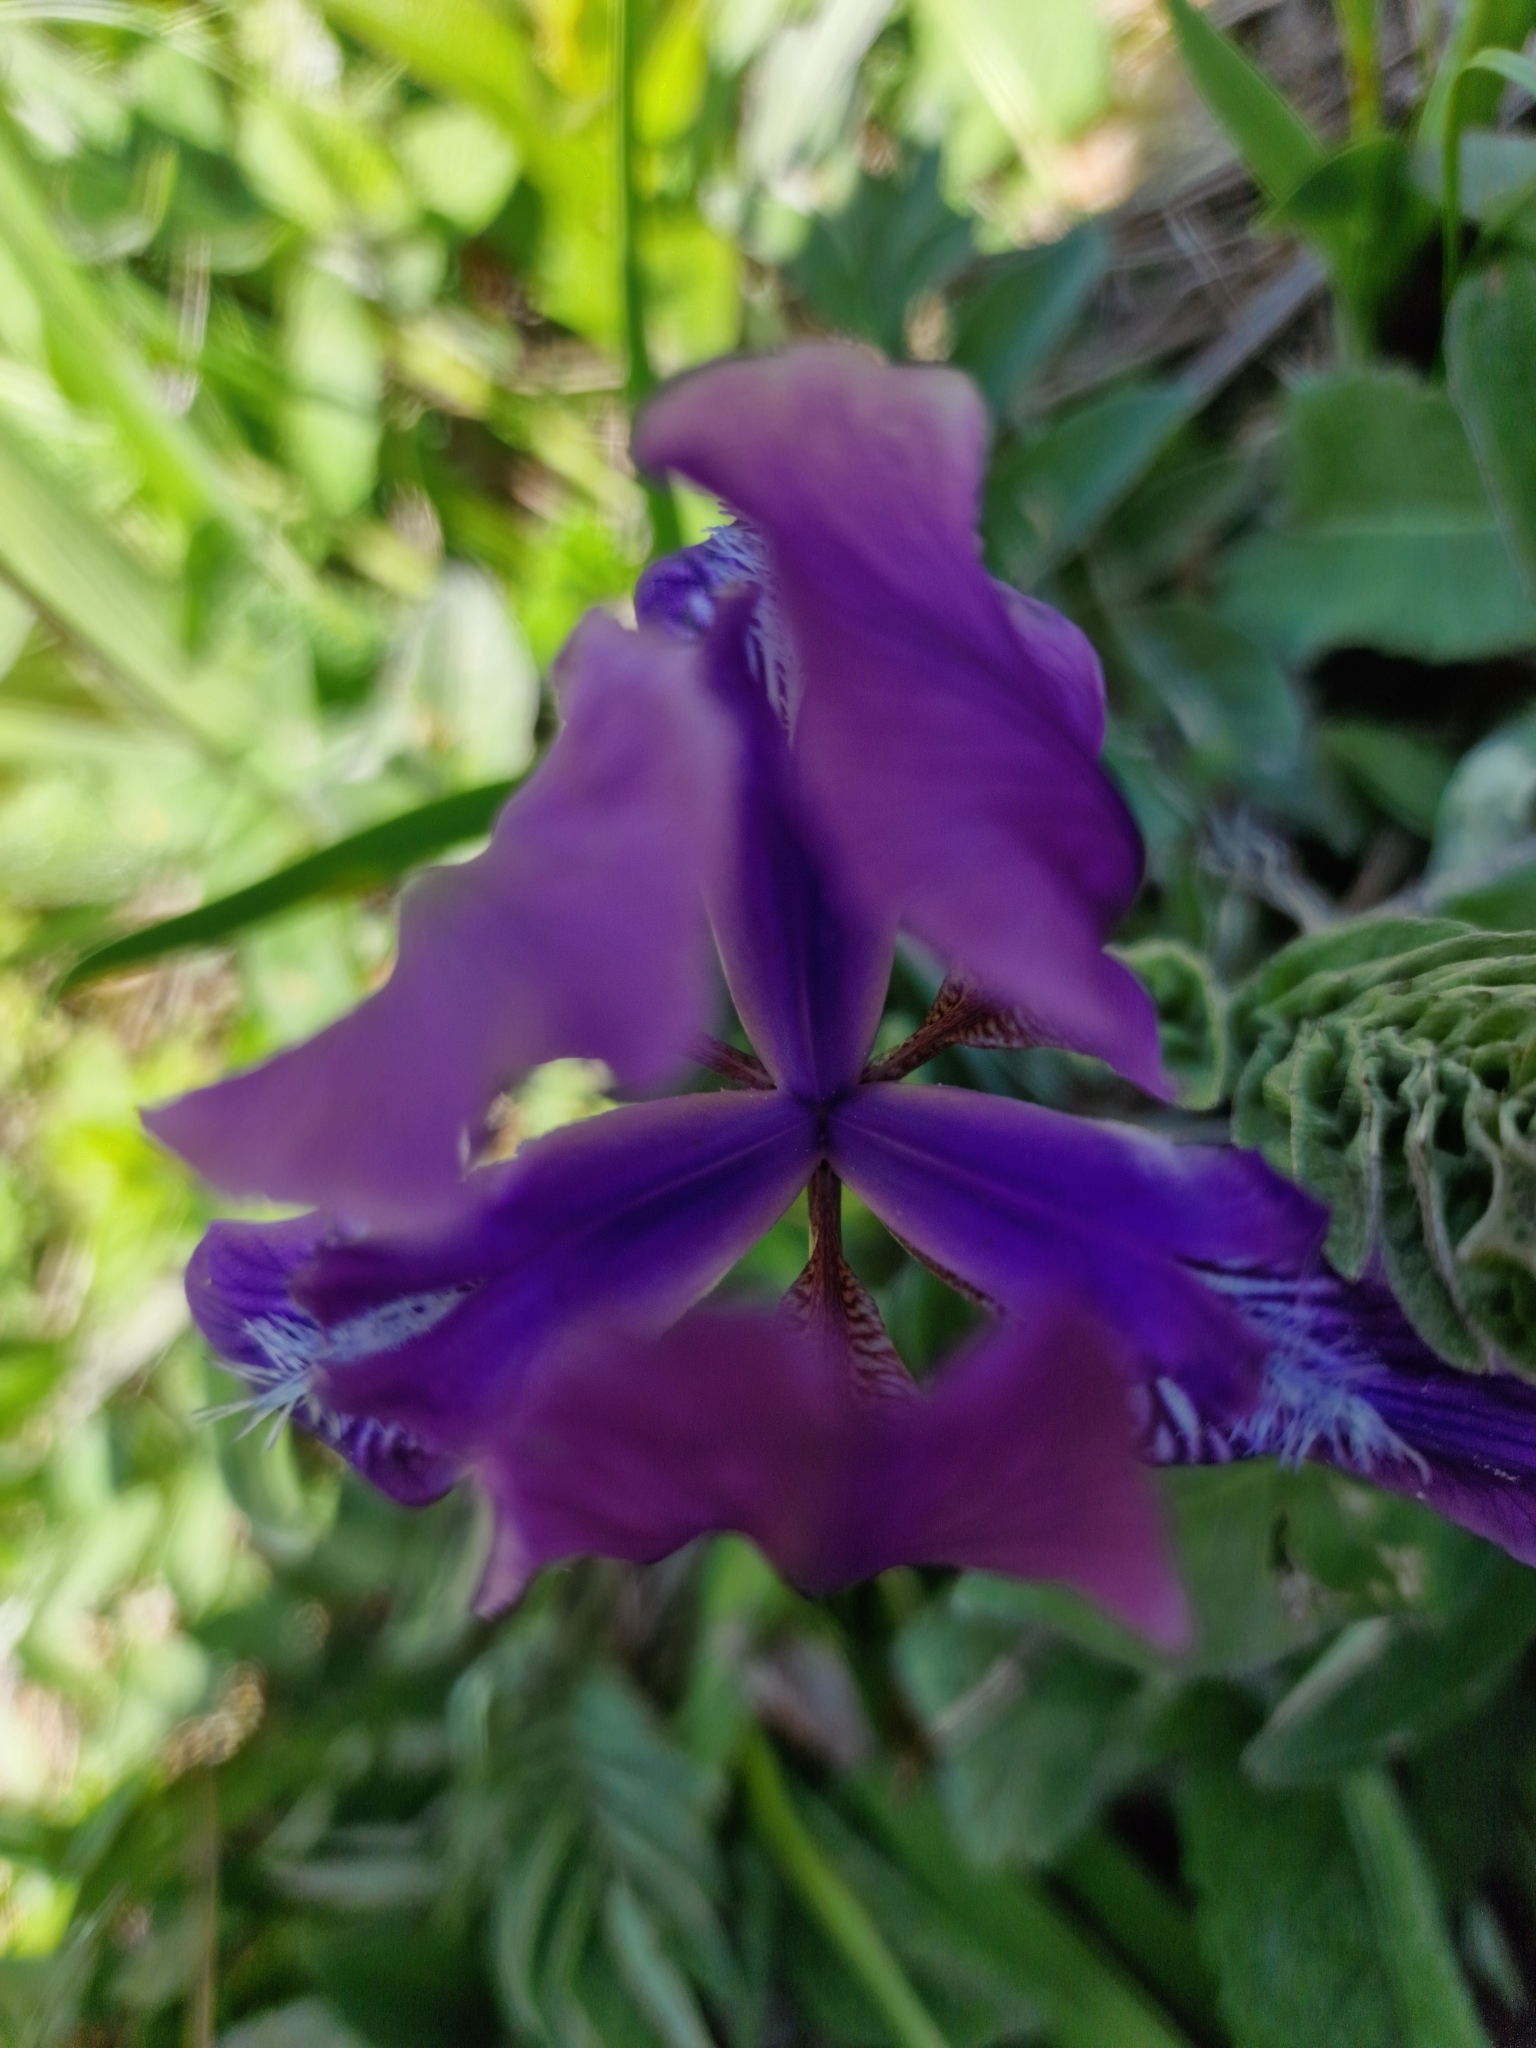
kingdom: Plantae
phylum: Tracheophyta
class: Liliopsida
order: Asparagales
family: Iridaceae
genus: Iris
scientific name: Iris furcata
